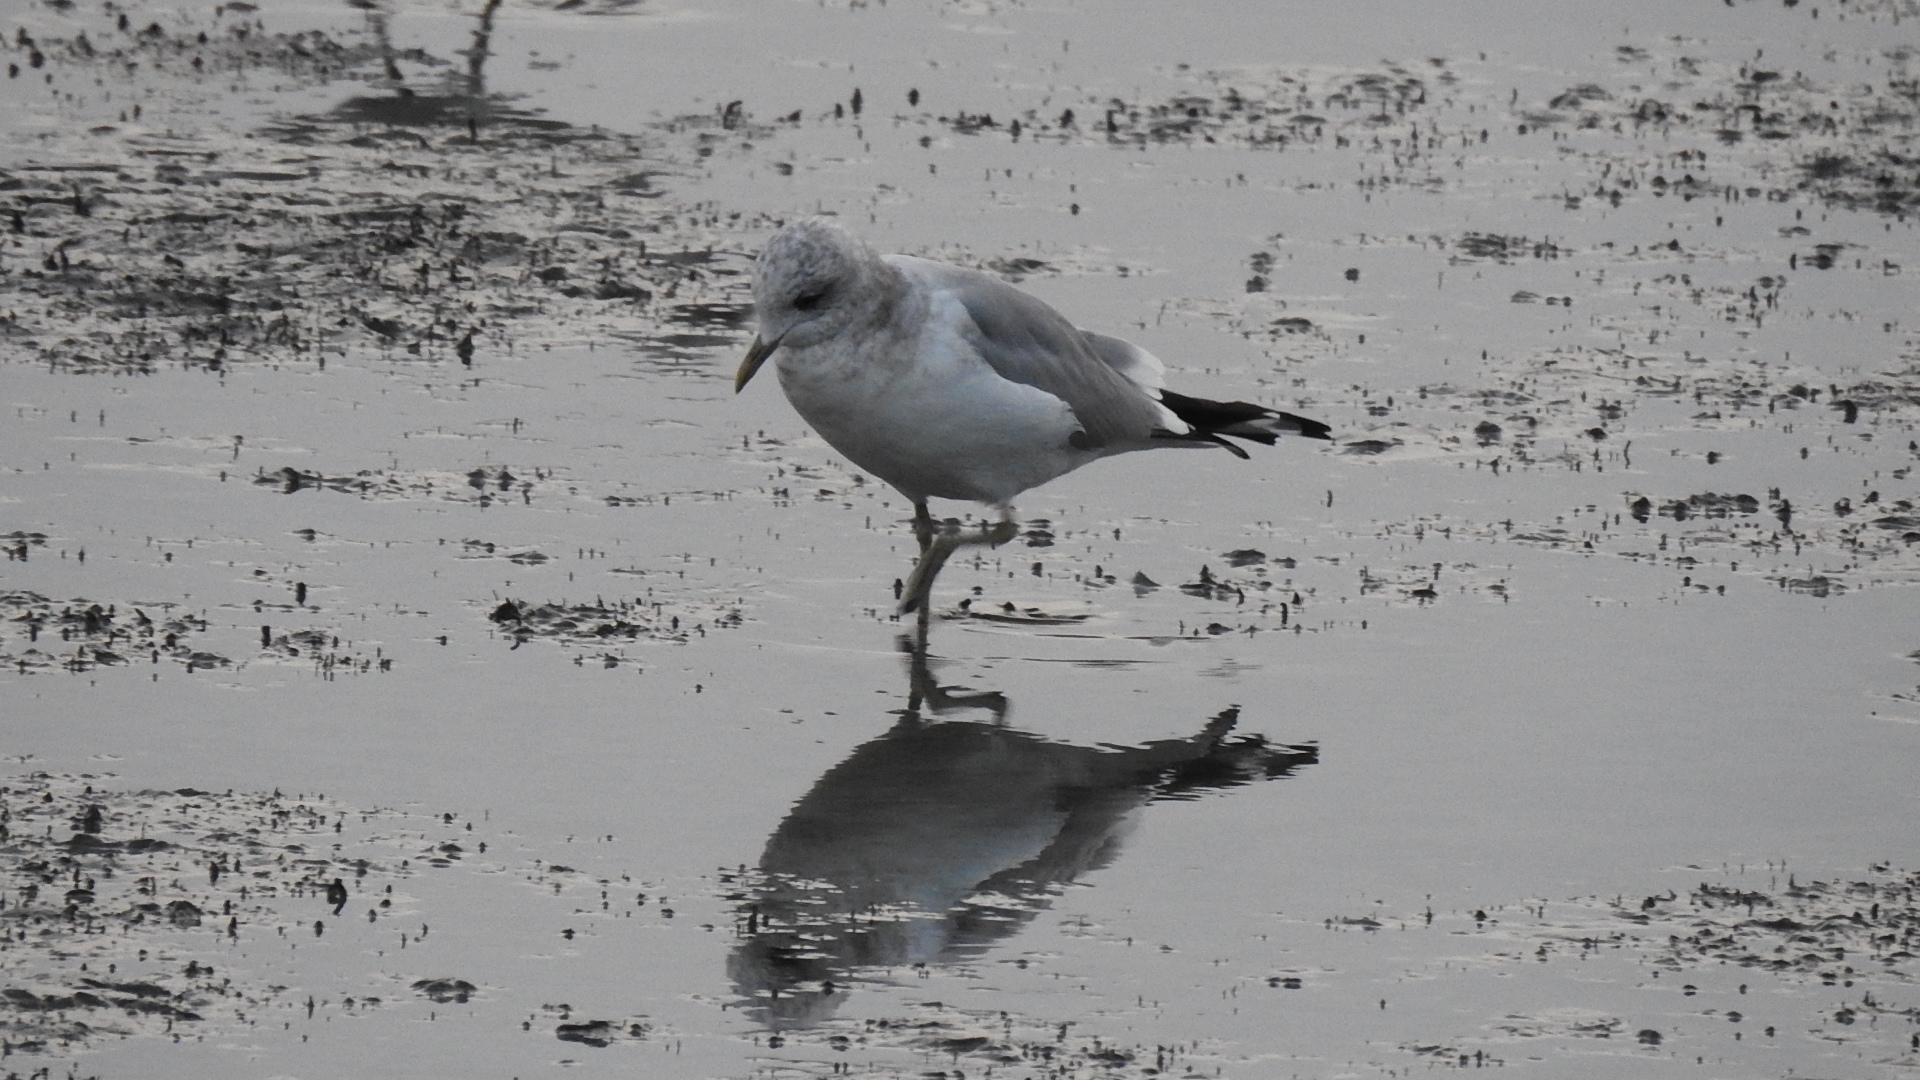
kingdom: Animalia
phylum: Chordata
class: Aves
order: Charadriiformes
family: Laridae
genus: Larus
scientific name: Larus brachyrhynchus
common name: Short-billed gull
